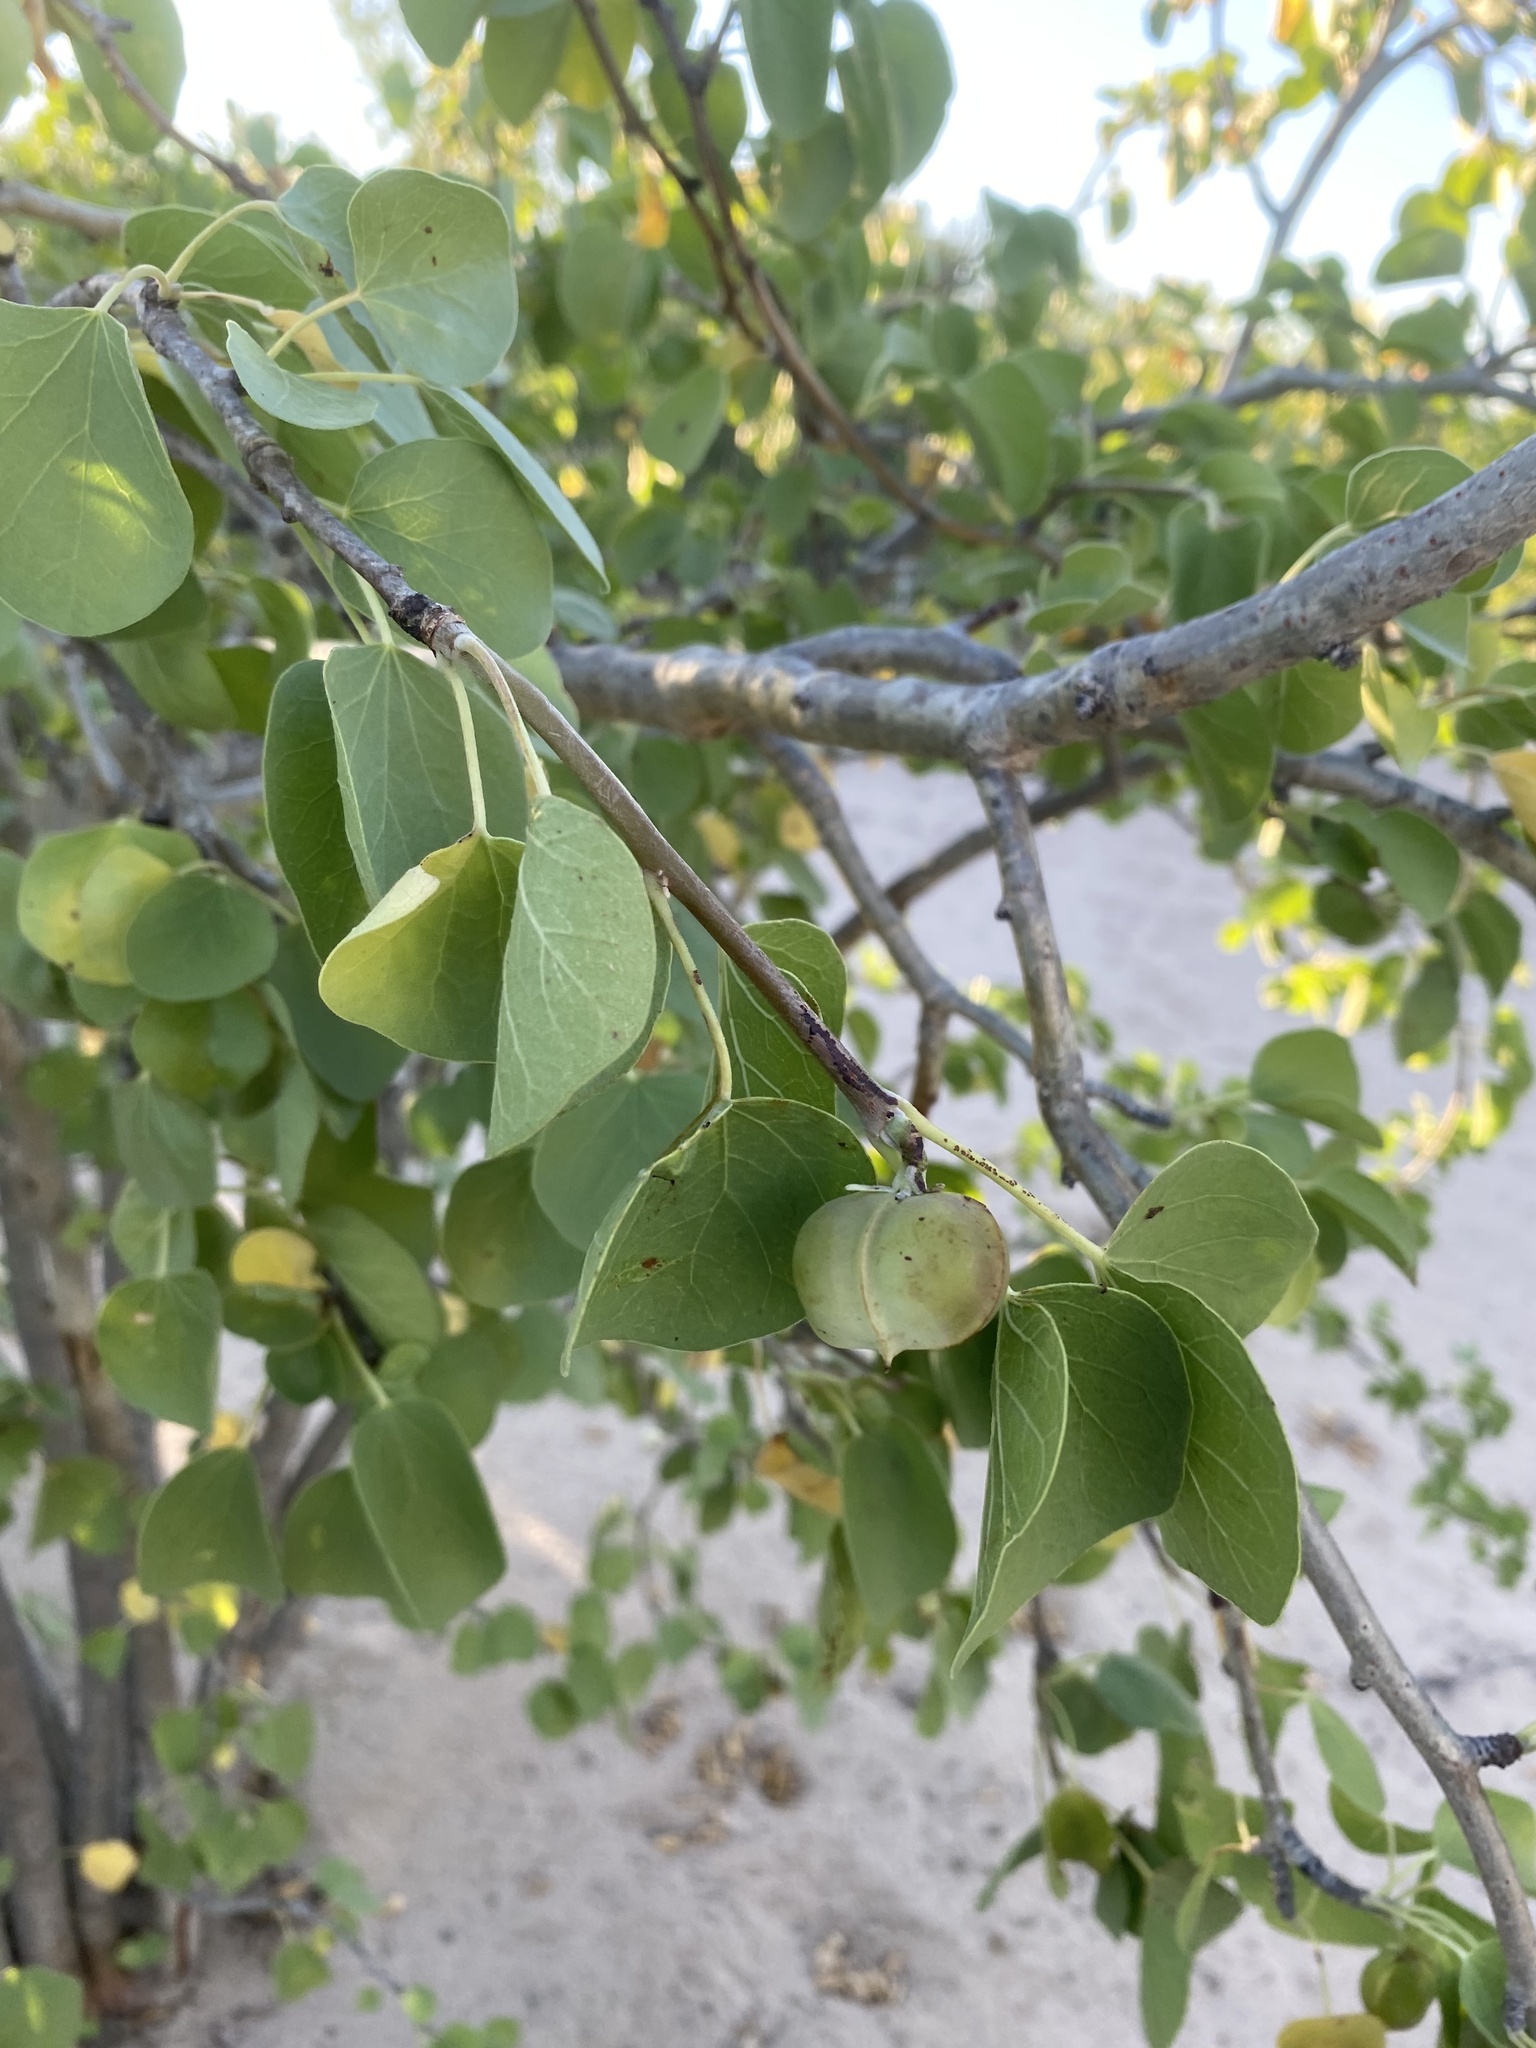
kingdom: Plantae
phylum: Tracheophyta
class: Magnoliopsida
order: Malpighiales
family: Euphorbiaceae
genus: Jatropha
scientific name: Jatropha cinerea
